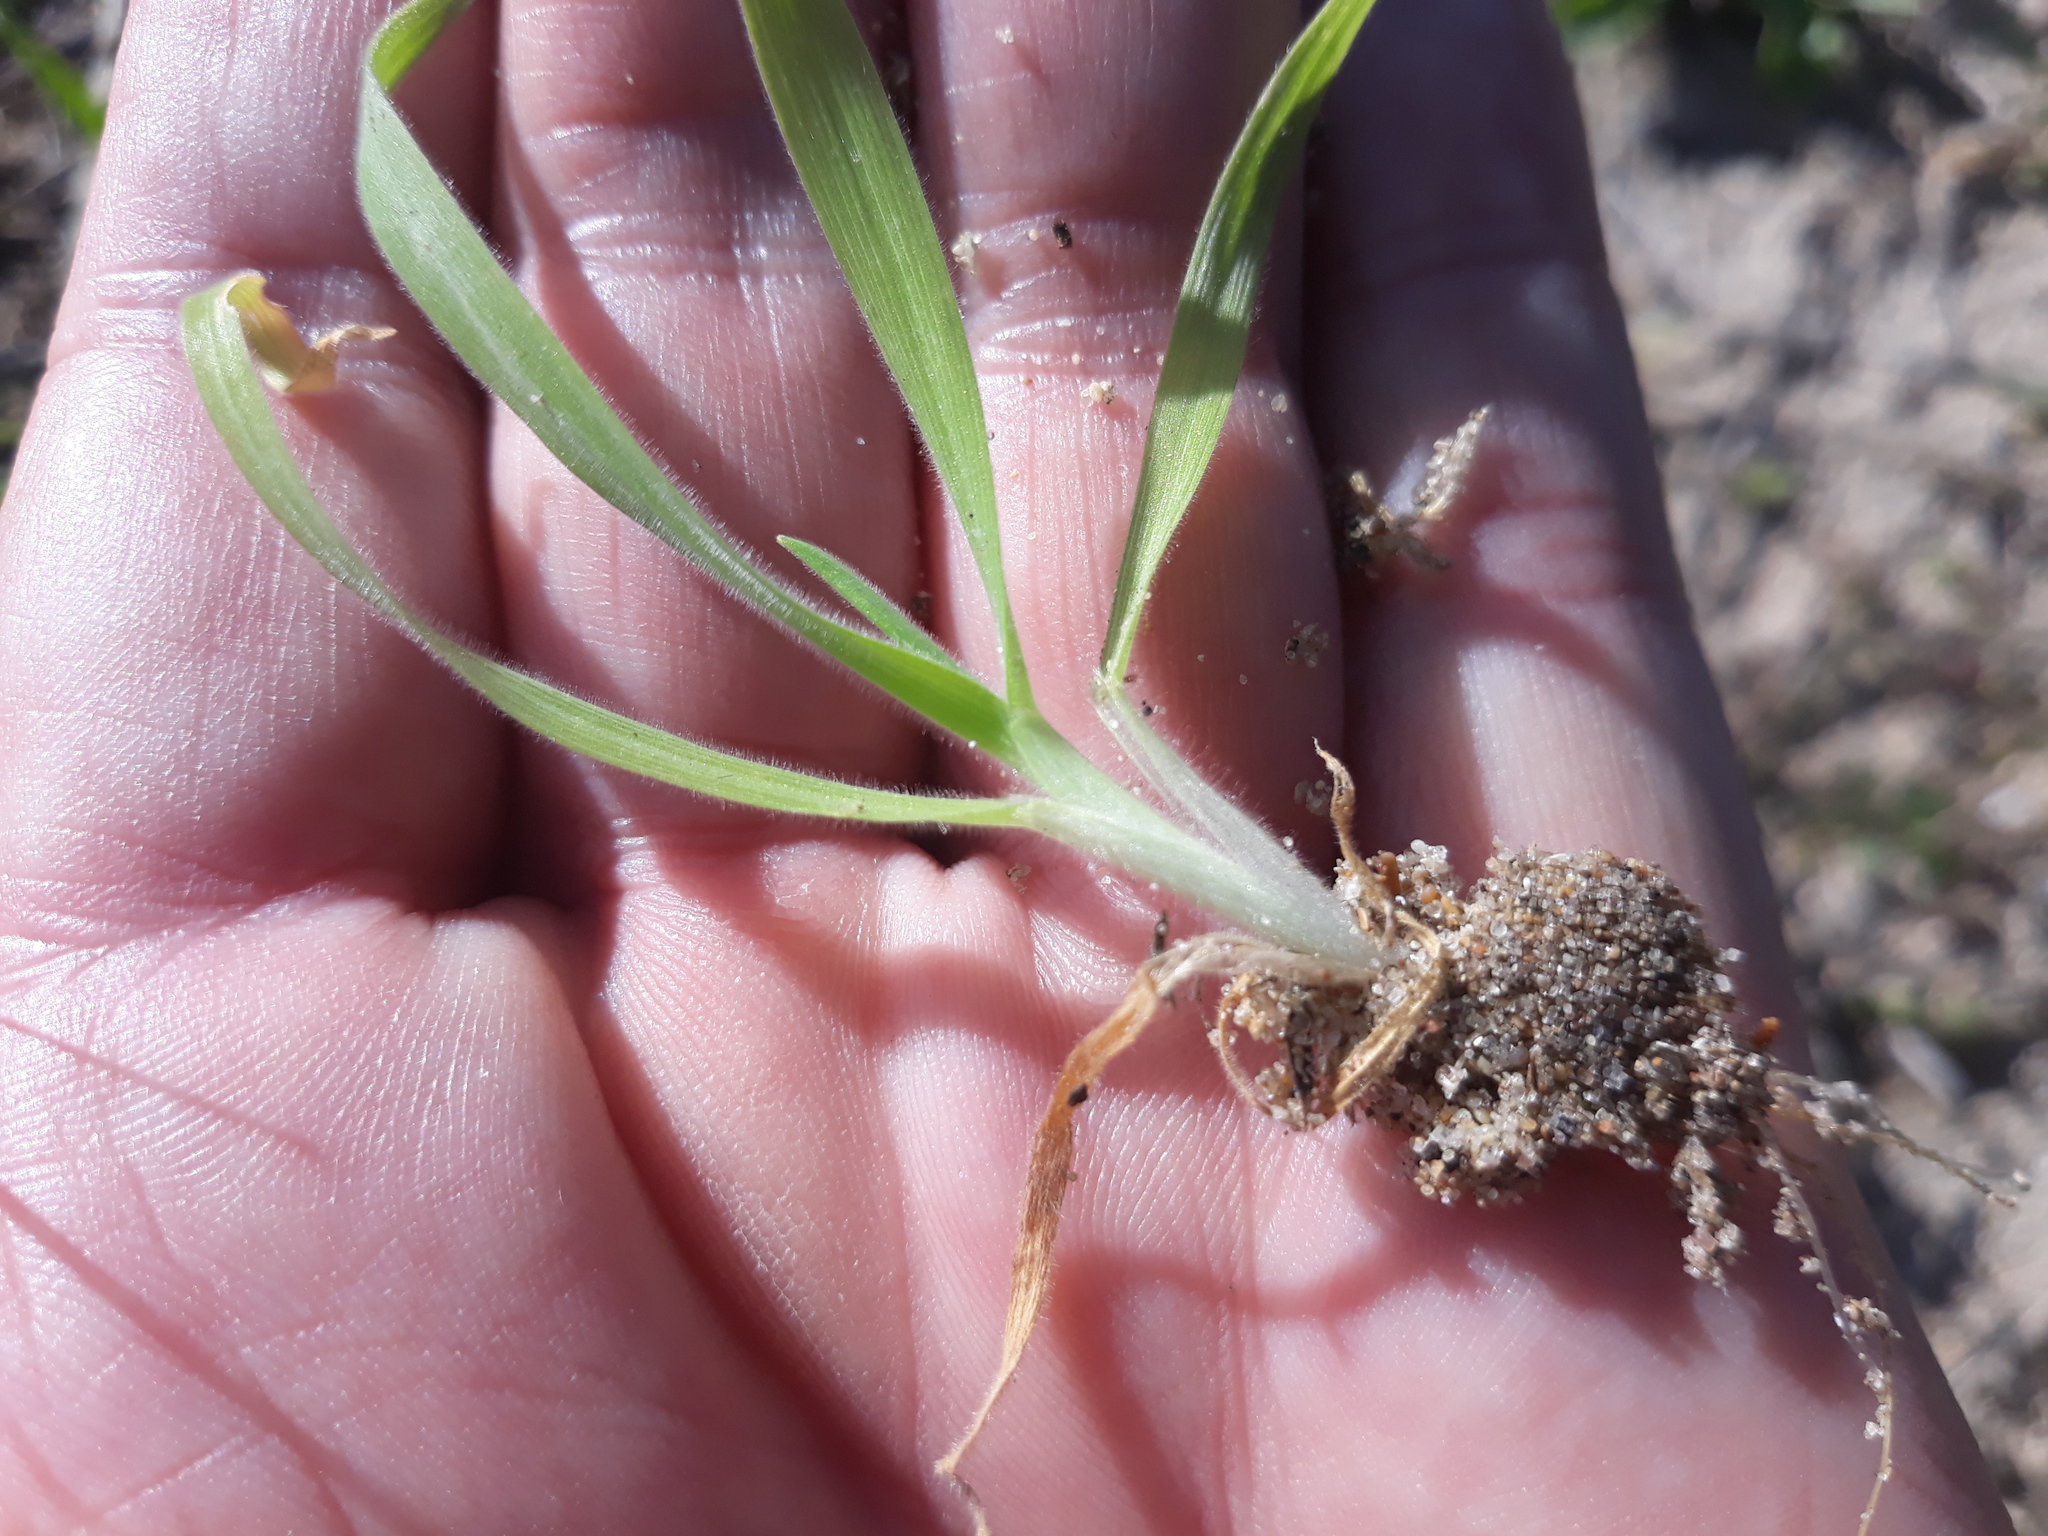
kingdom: Plantae
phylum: Tracheophyta
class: Liliopsida
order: Poales
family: Poaceae
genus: Lagurus
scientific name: Lagurus ovatus
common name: Hare's-tail
